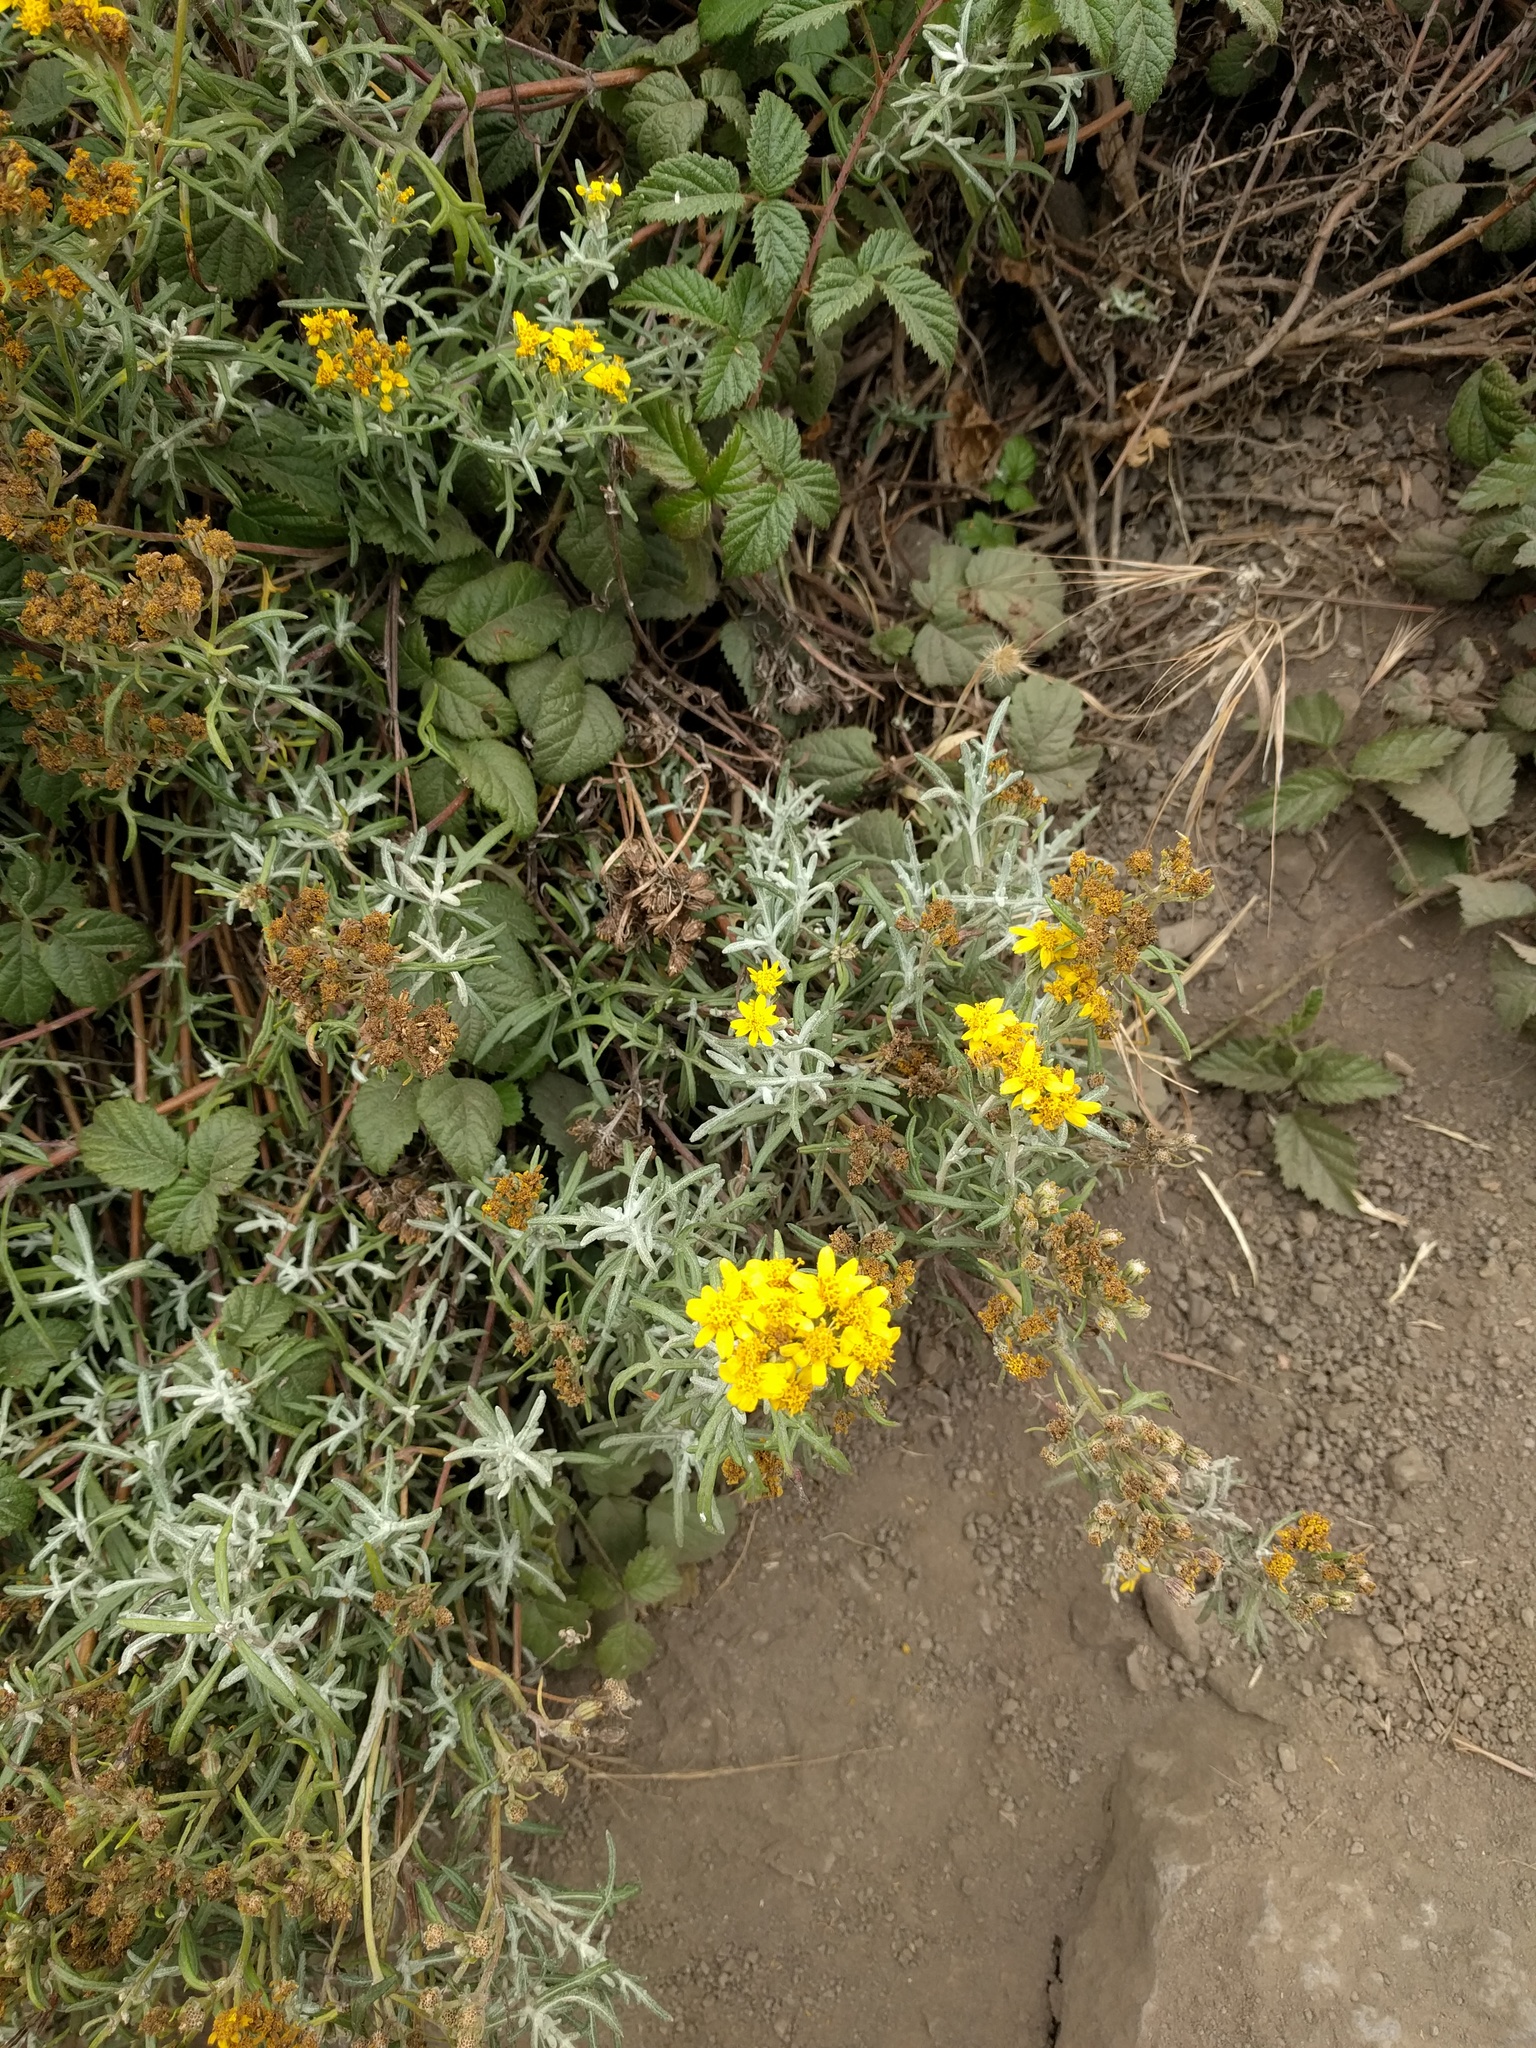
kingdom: Plantae
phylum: Tracheophyta
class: Magnoliopsida
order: Asterales
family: Asteraceae
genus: Eriophyllum
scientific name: Eriophyllum staechadifolium
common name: Lizardtail
